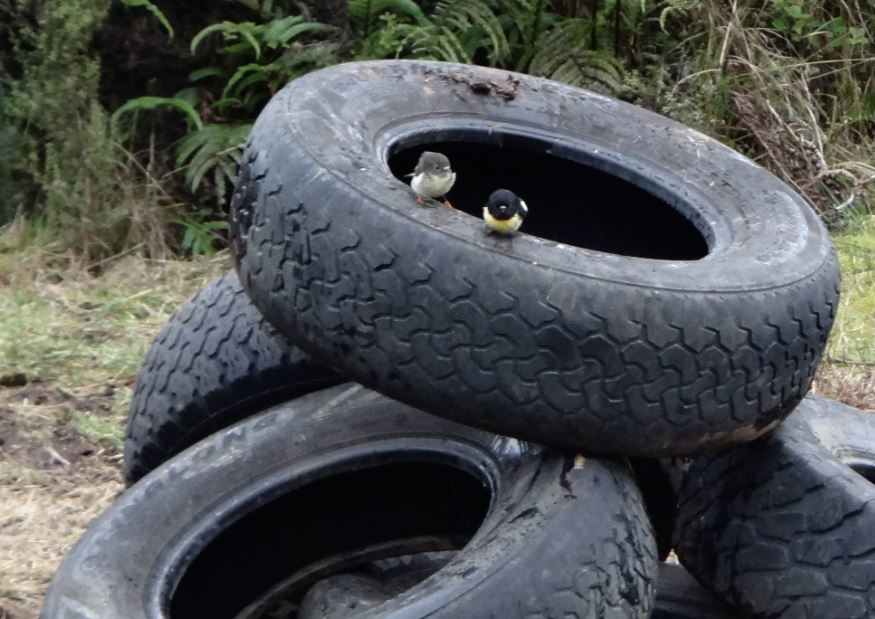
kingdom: Animalia
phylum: Chordata
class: Aves
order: Passeriformes
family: Petroicidae
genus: Petroica
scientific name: Petroica macrocephala
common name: Tomtit
